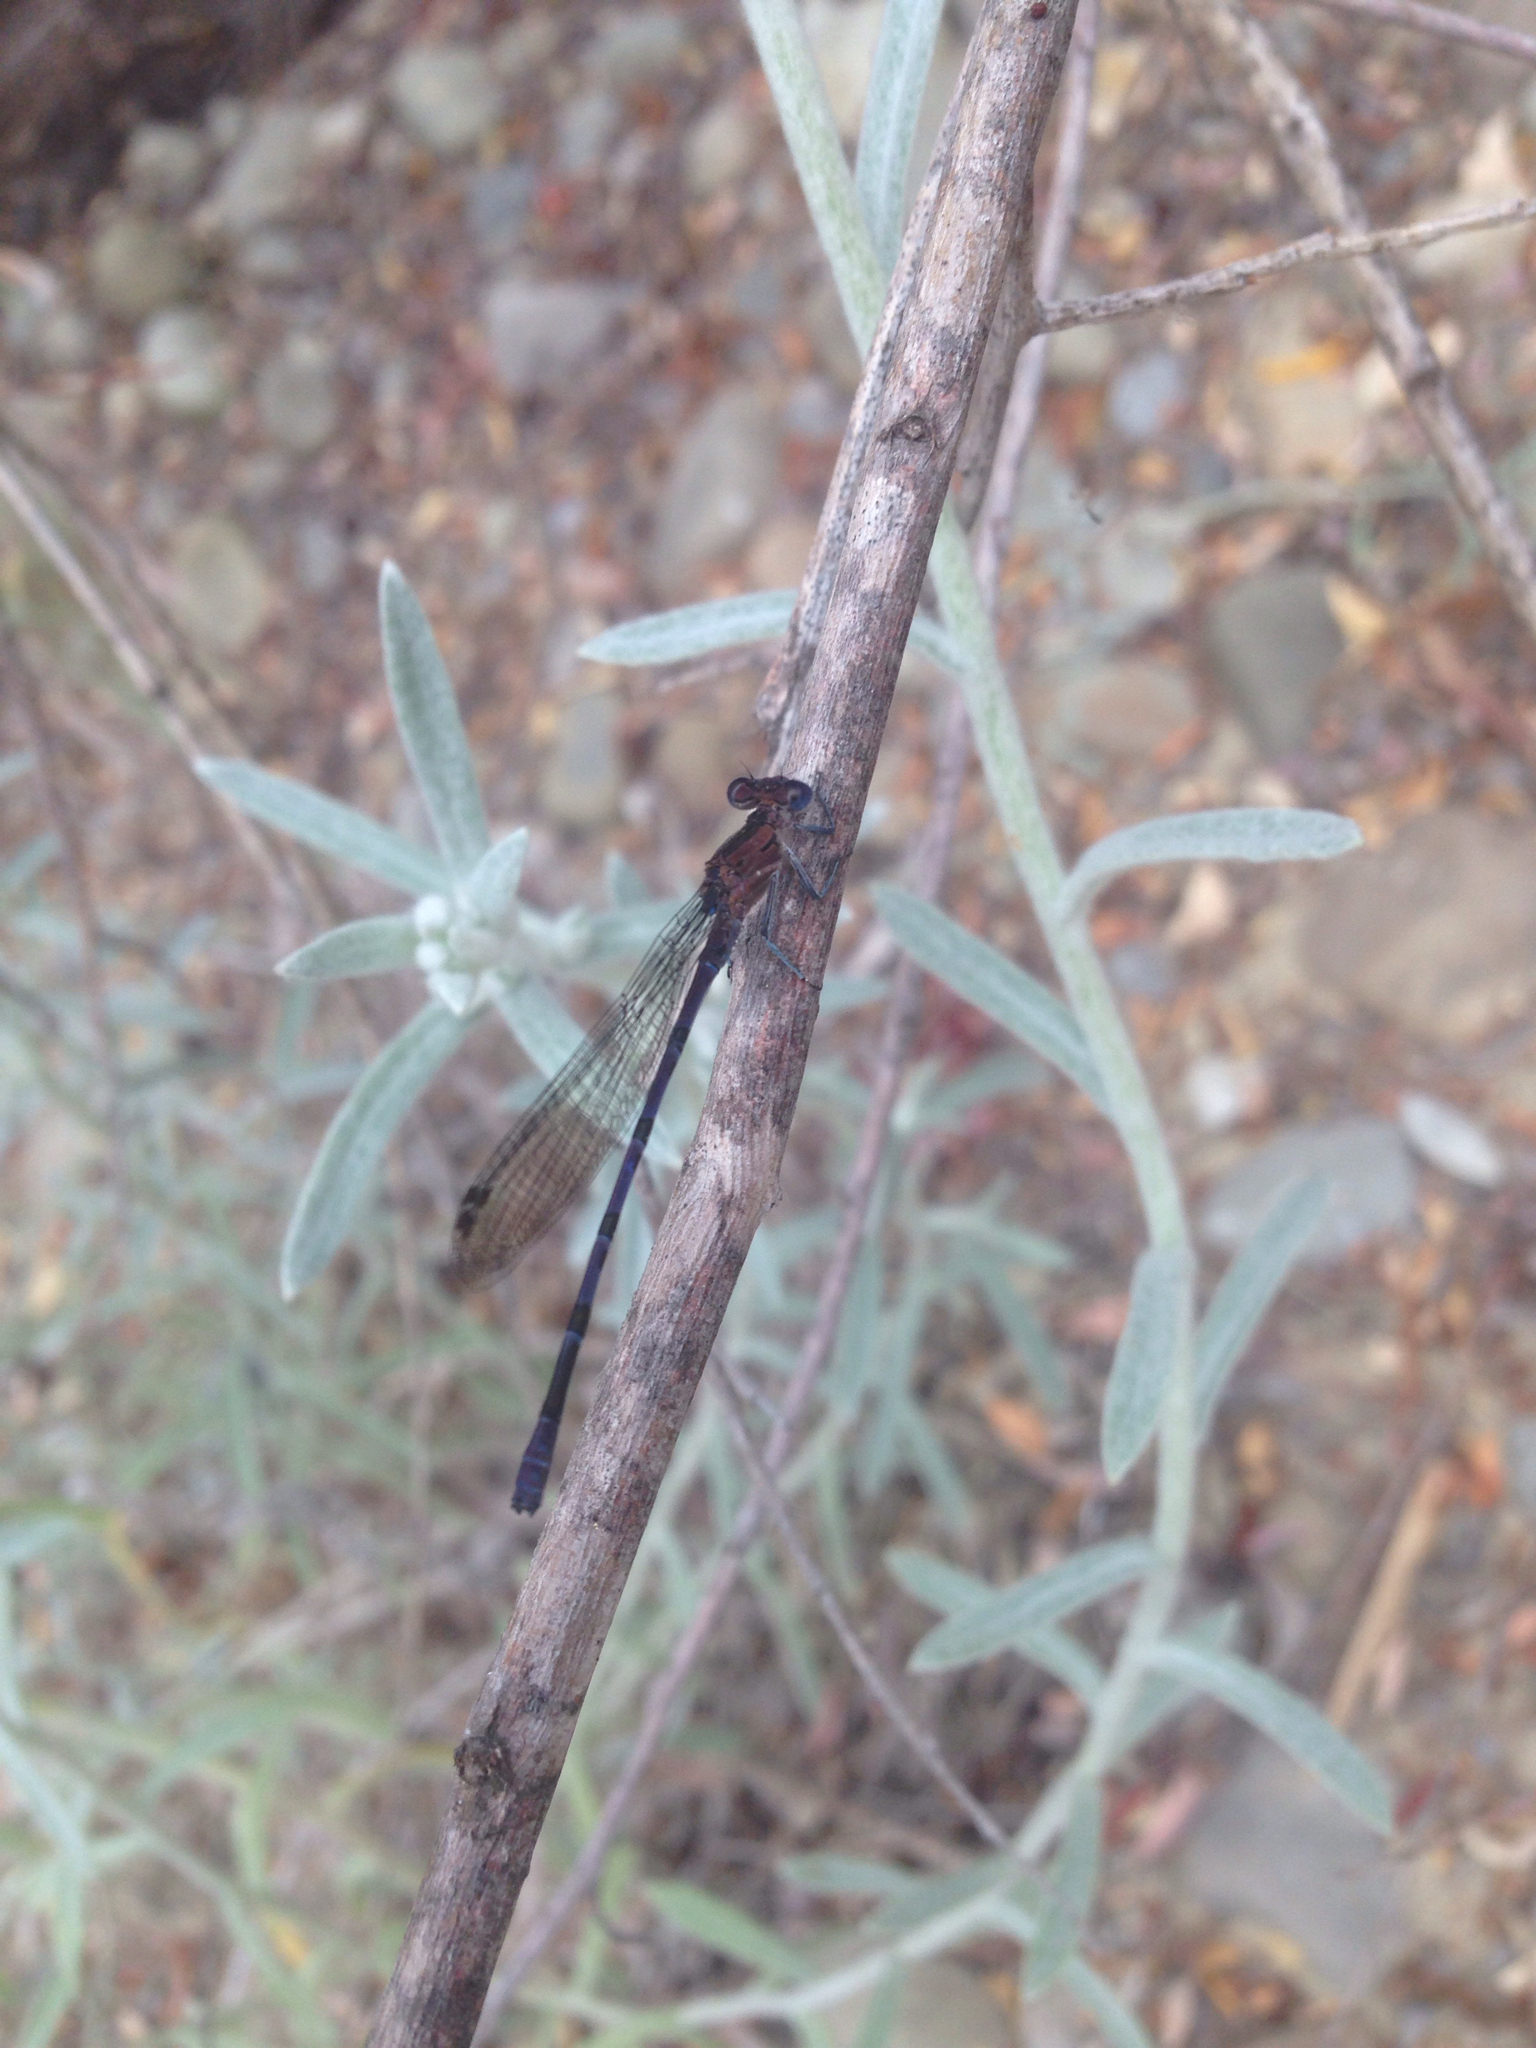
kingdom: Animalia
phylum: Arthropoda
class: Insecta
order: Odonata
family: Coenagrionidae
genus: Argia
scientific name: Argia vivida
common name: Vivid dancer
